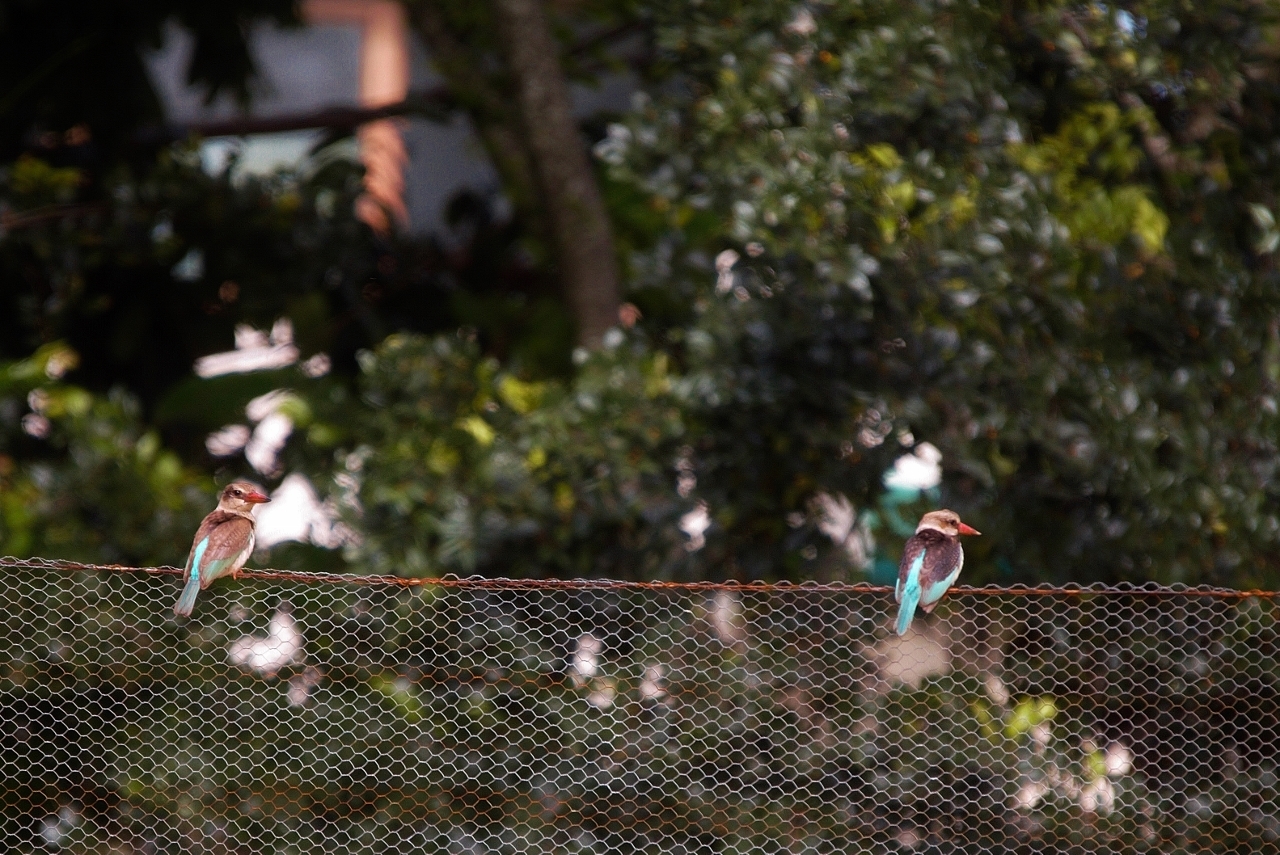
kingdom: Animalia
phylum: Chordata
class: Aves
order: Coraciiformes
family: Alcedinidae
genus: Halcyon
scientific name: Halcyon albiventris
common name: Brown-hooded kingfisher
